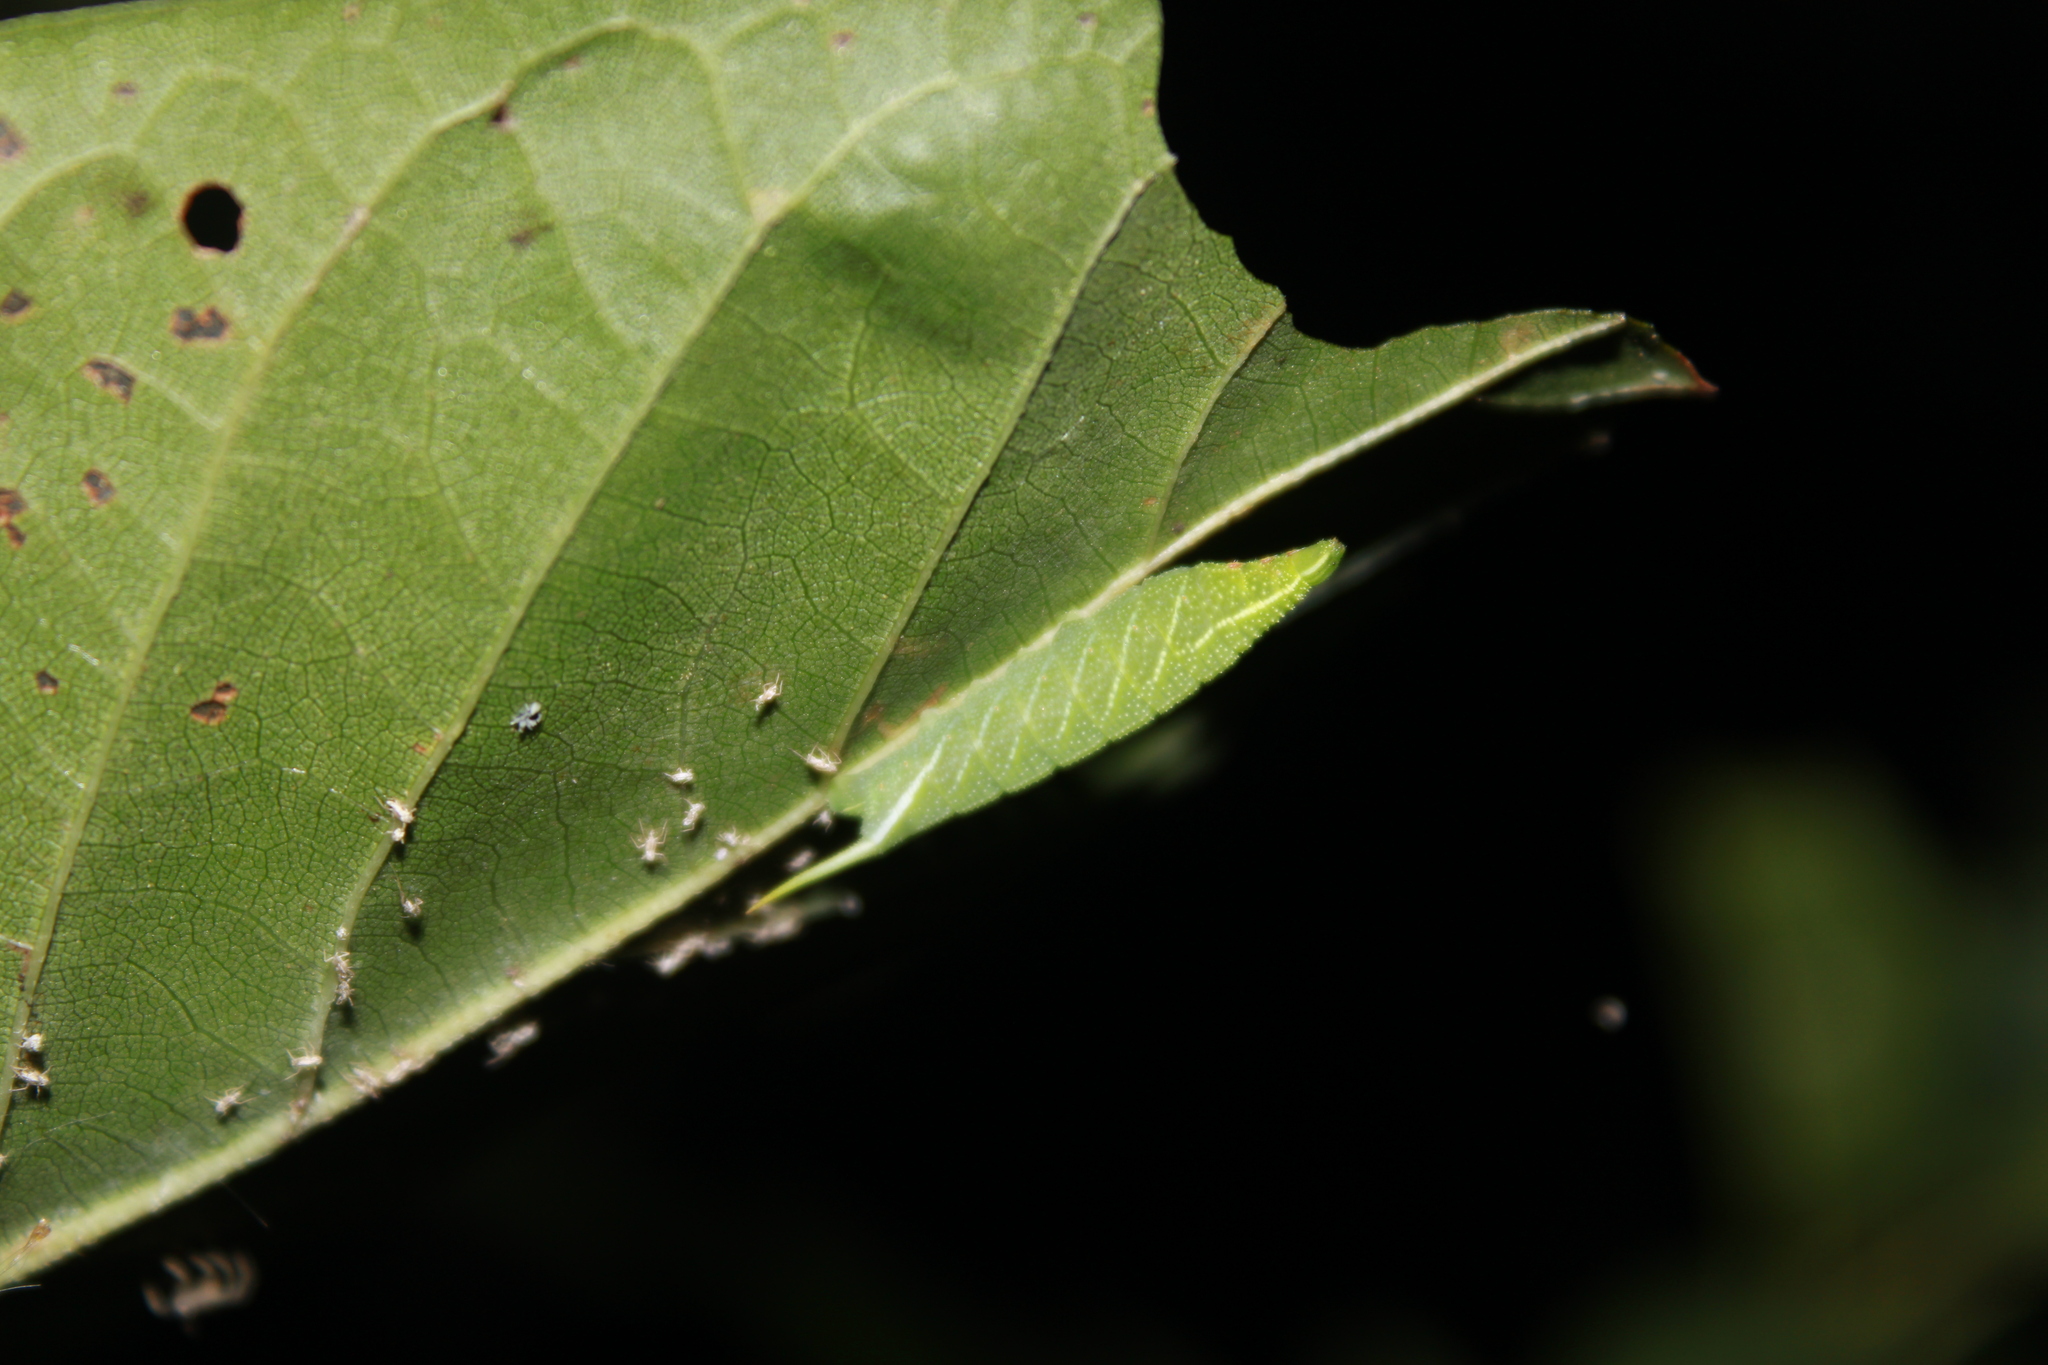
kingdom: Animalia
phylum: Arthropoda
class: Insecta
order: Lepidoptera
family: Sphingidae
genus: Darapsa
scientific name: Darapsa versicolor
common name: Hydrangea sphinx
